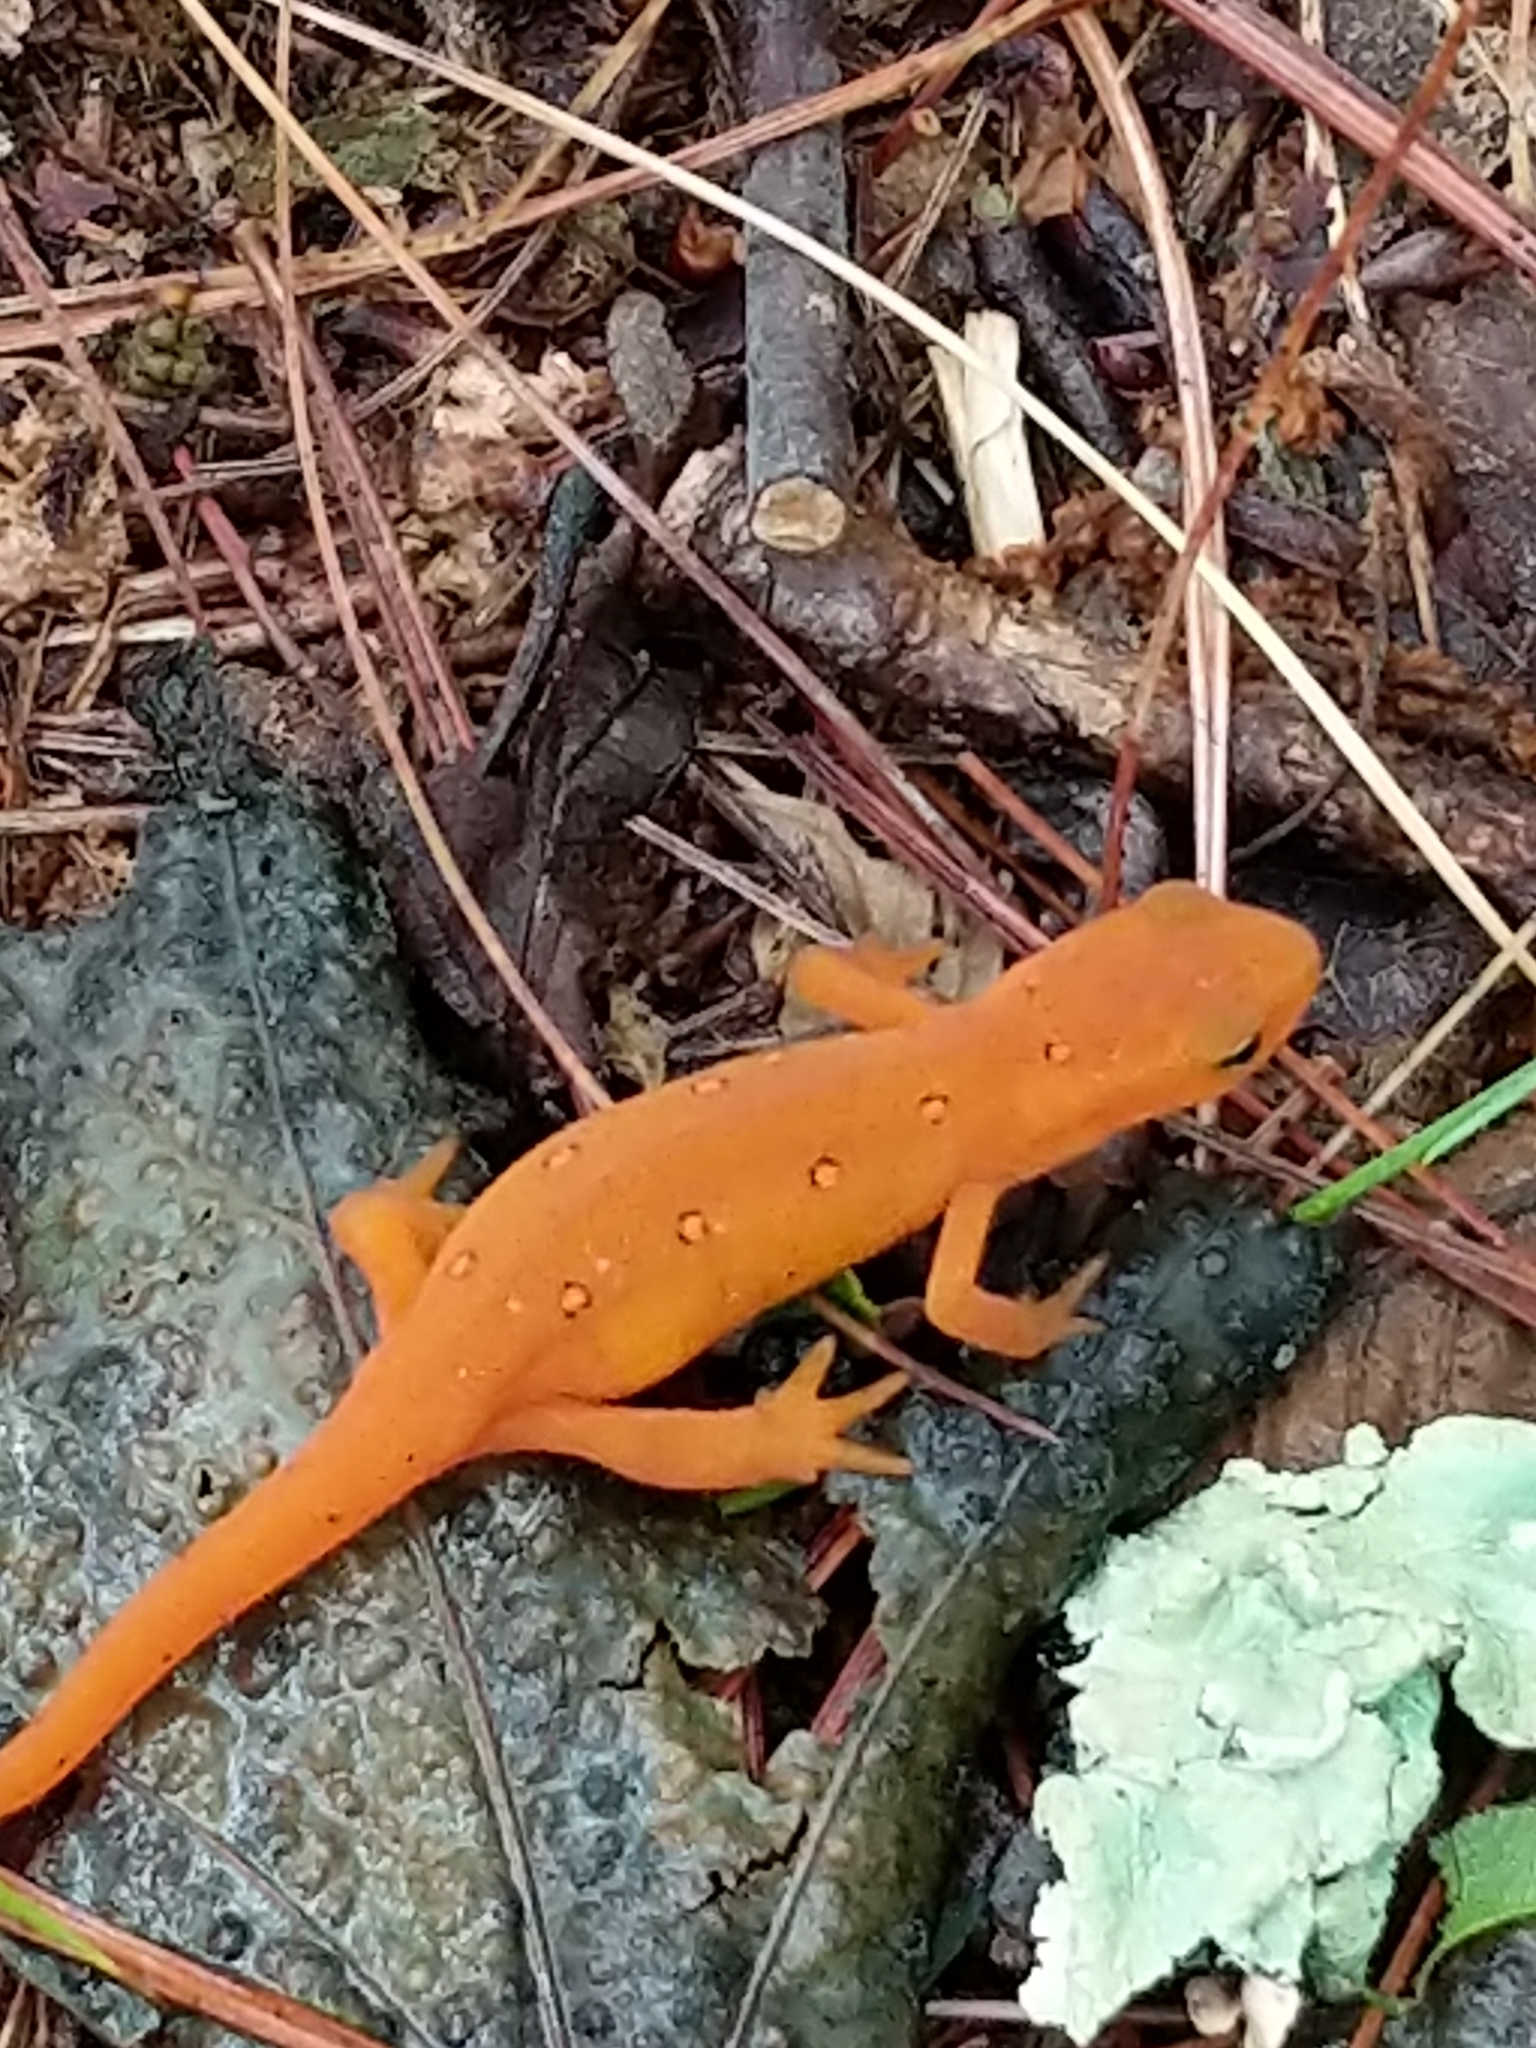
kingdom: Animalia
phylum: Chordata
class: Amphibia
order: Caudata
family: Salamandridae
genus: Notophthalmus
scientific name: Notophthalmus viridescens
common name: Eastern newt
